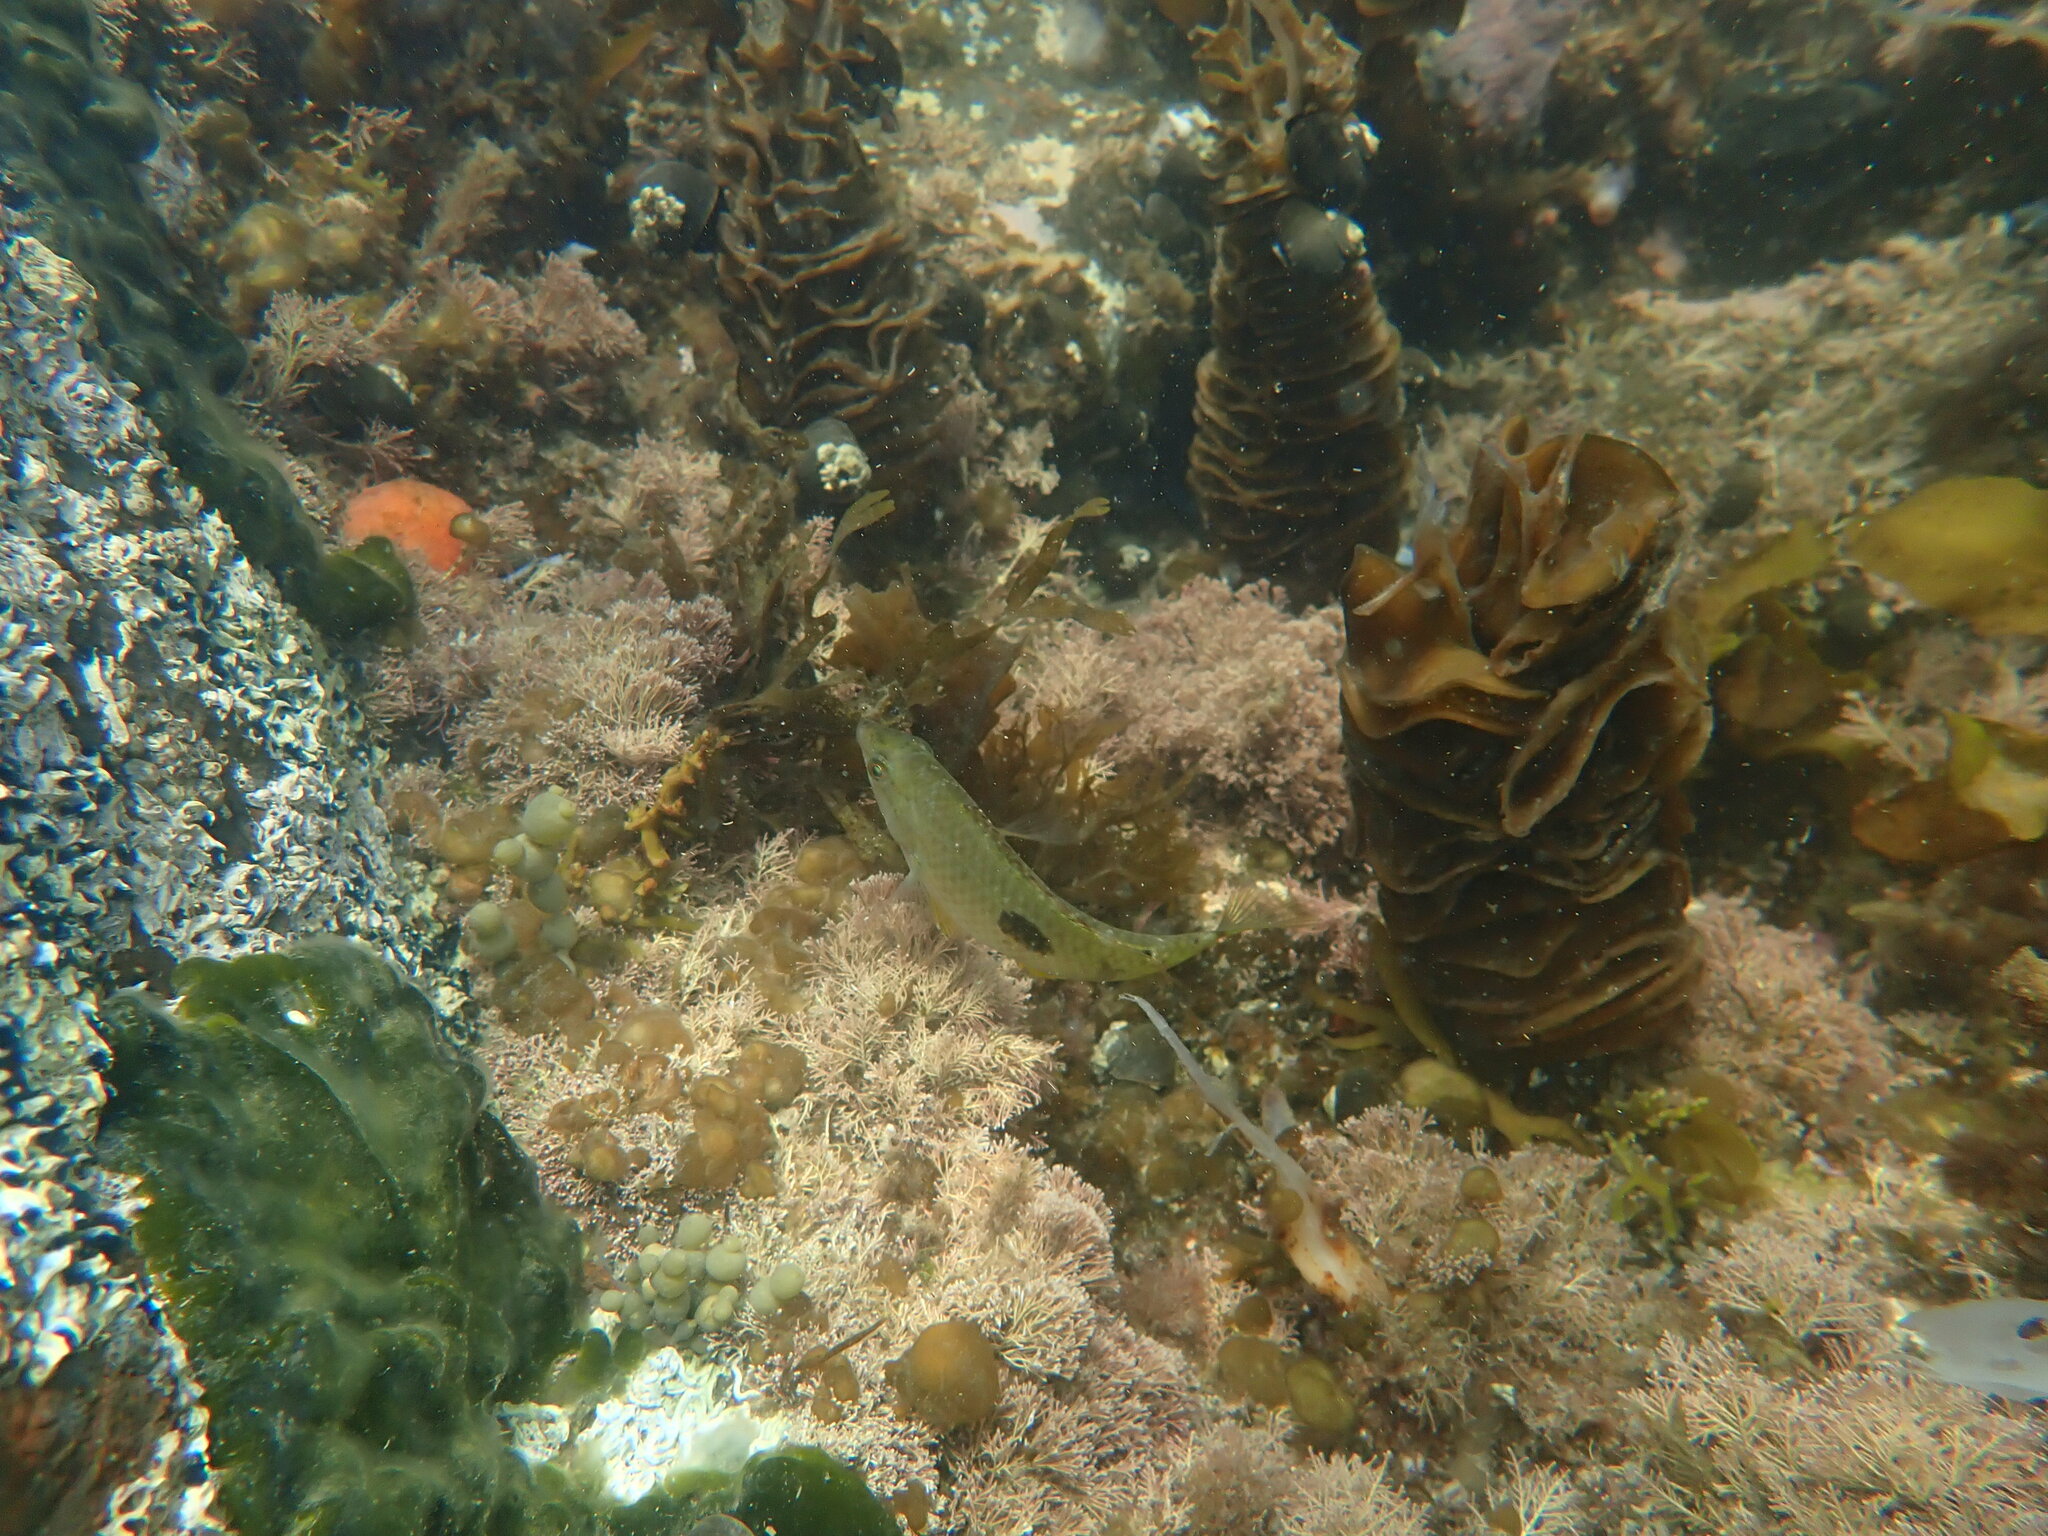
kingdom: Animalia
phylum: Chordata
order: Perciformes
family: Labridae
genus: Notolabrus
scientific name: Notolabrus celidotus
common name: Spotty
